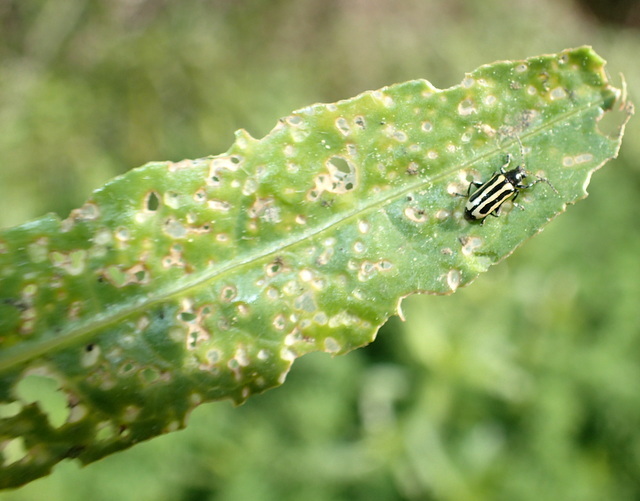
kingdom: Animalia
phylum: Arthropoda
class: Insecta
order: Coleoptera
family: Chrysomelidae
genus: Agasicles
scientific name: Agasicles hygrophila
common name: Alligatorweed flea beetle
